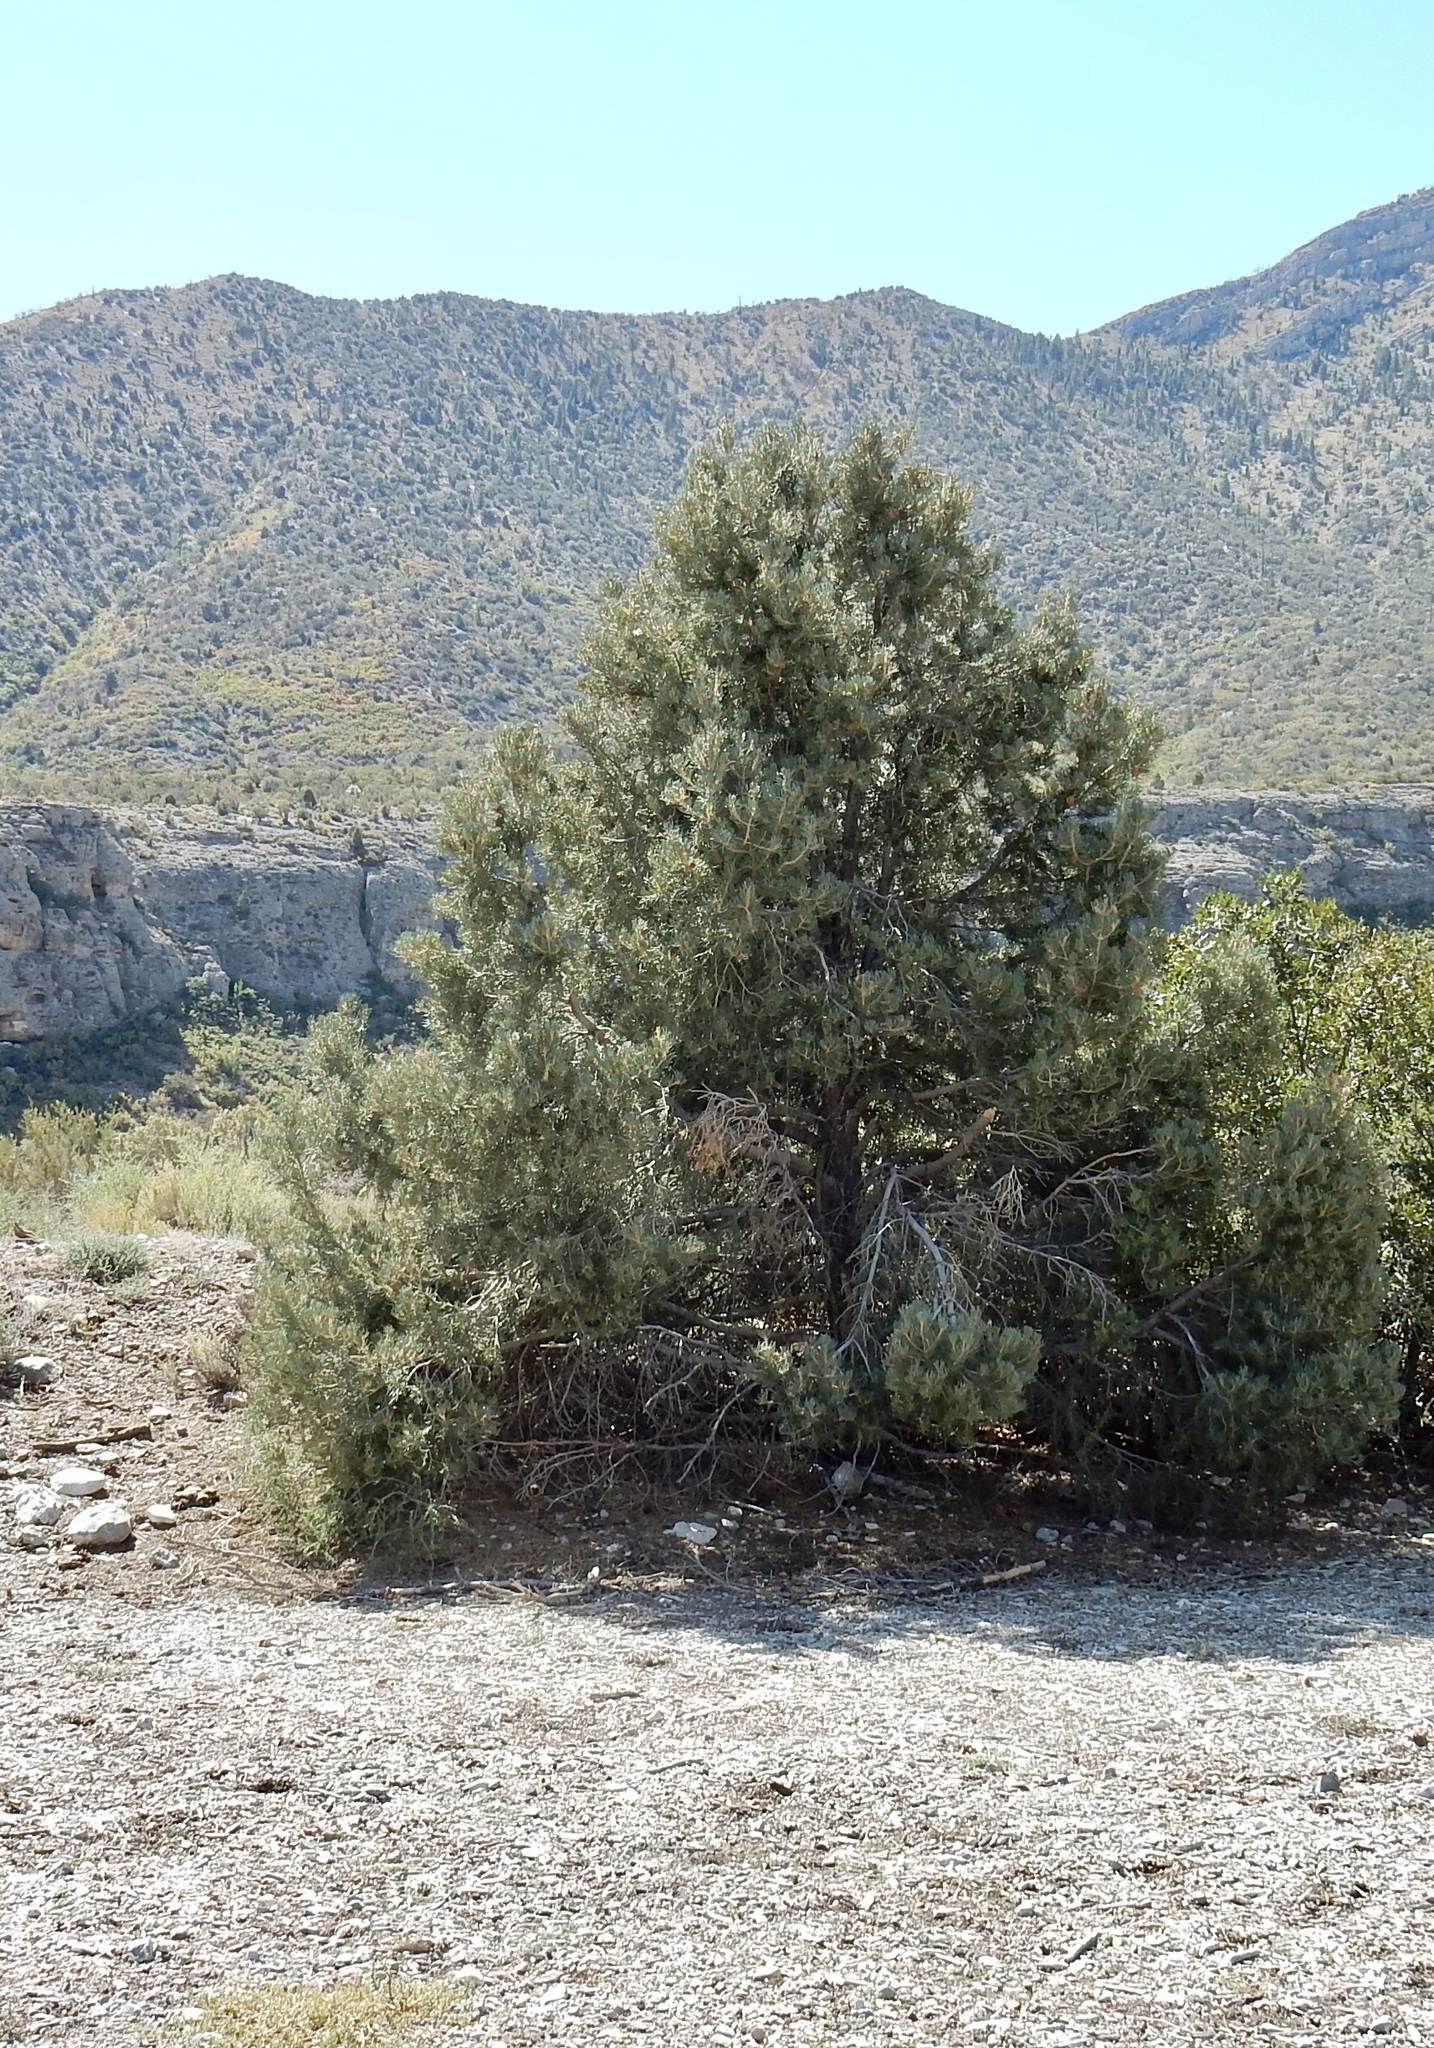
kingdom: Plantae
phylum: Tracheophyta
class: Pinopsida
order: Pinales
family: Pinaceae
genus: Pinus
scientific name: Pinus monophylla
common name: One-leaved nut pine
